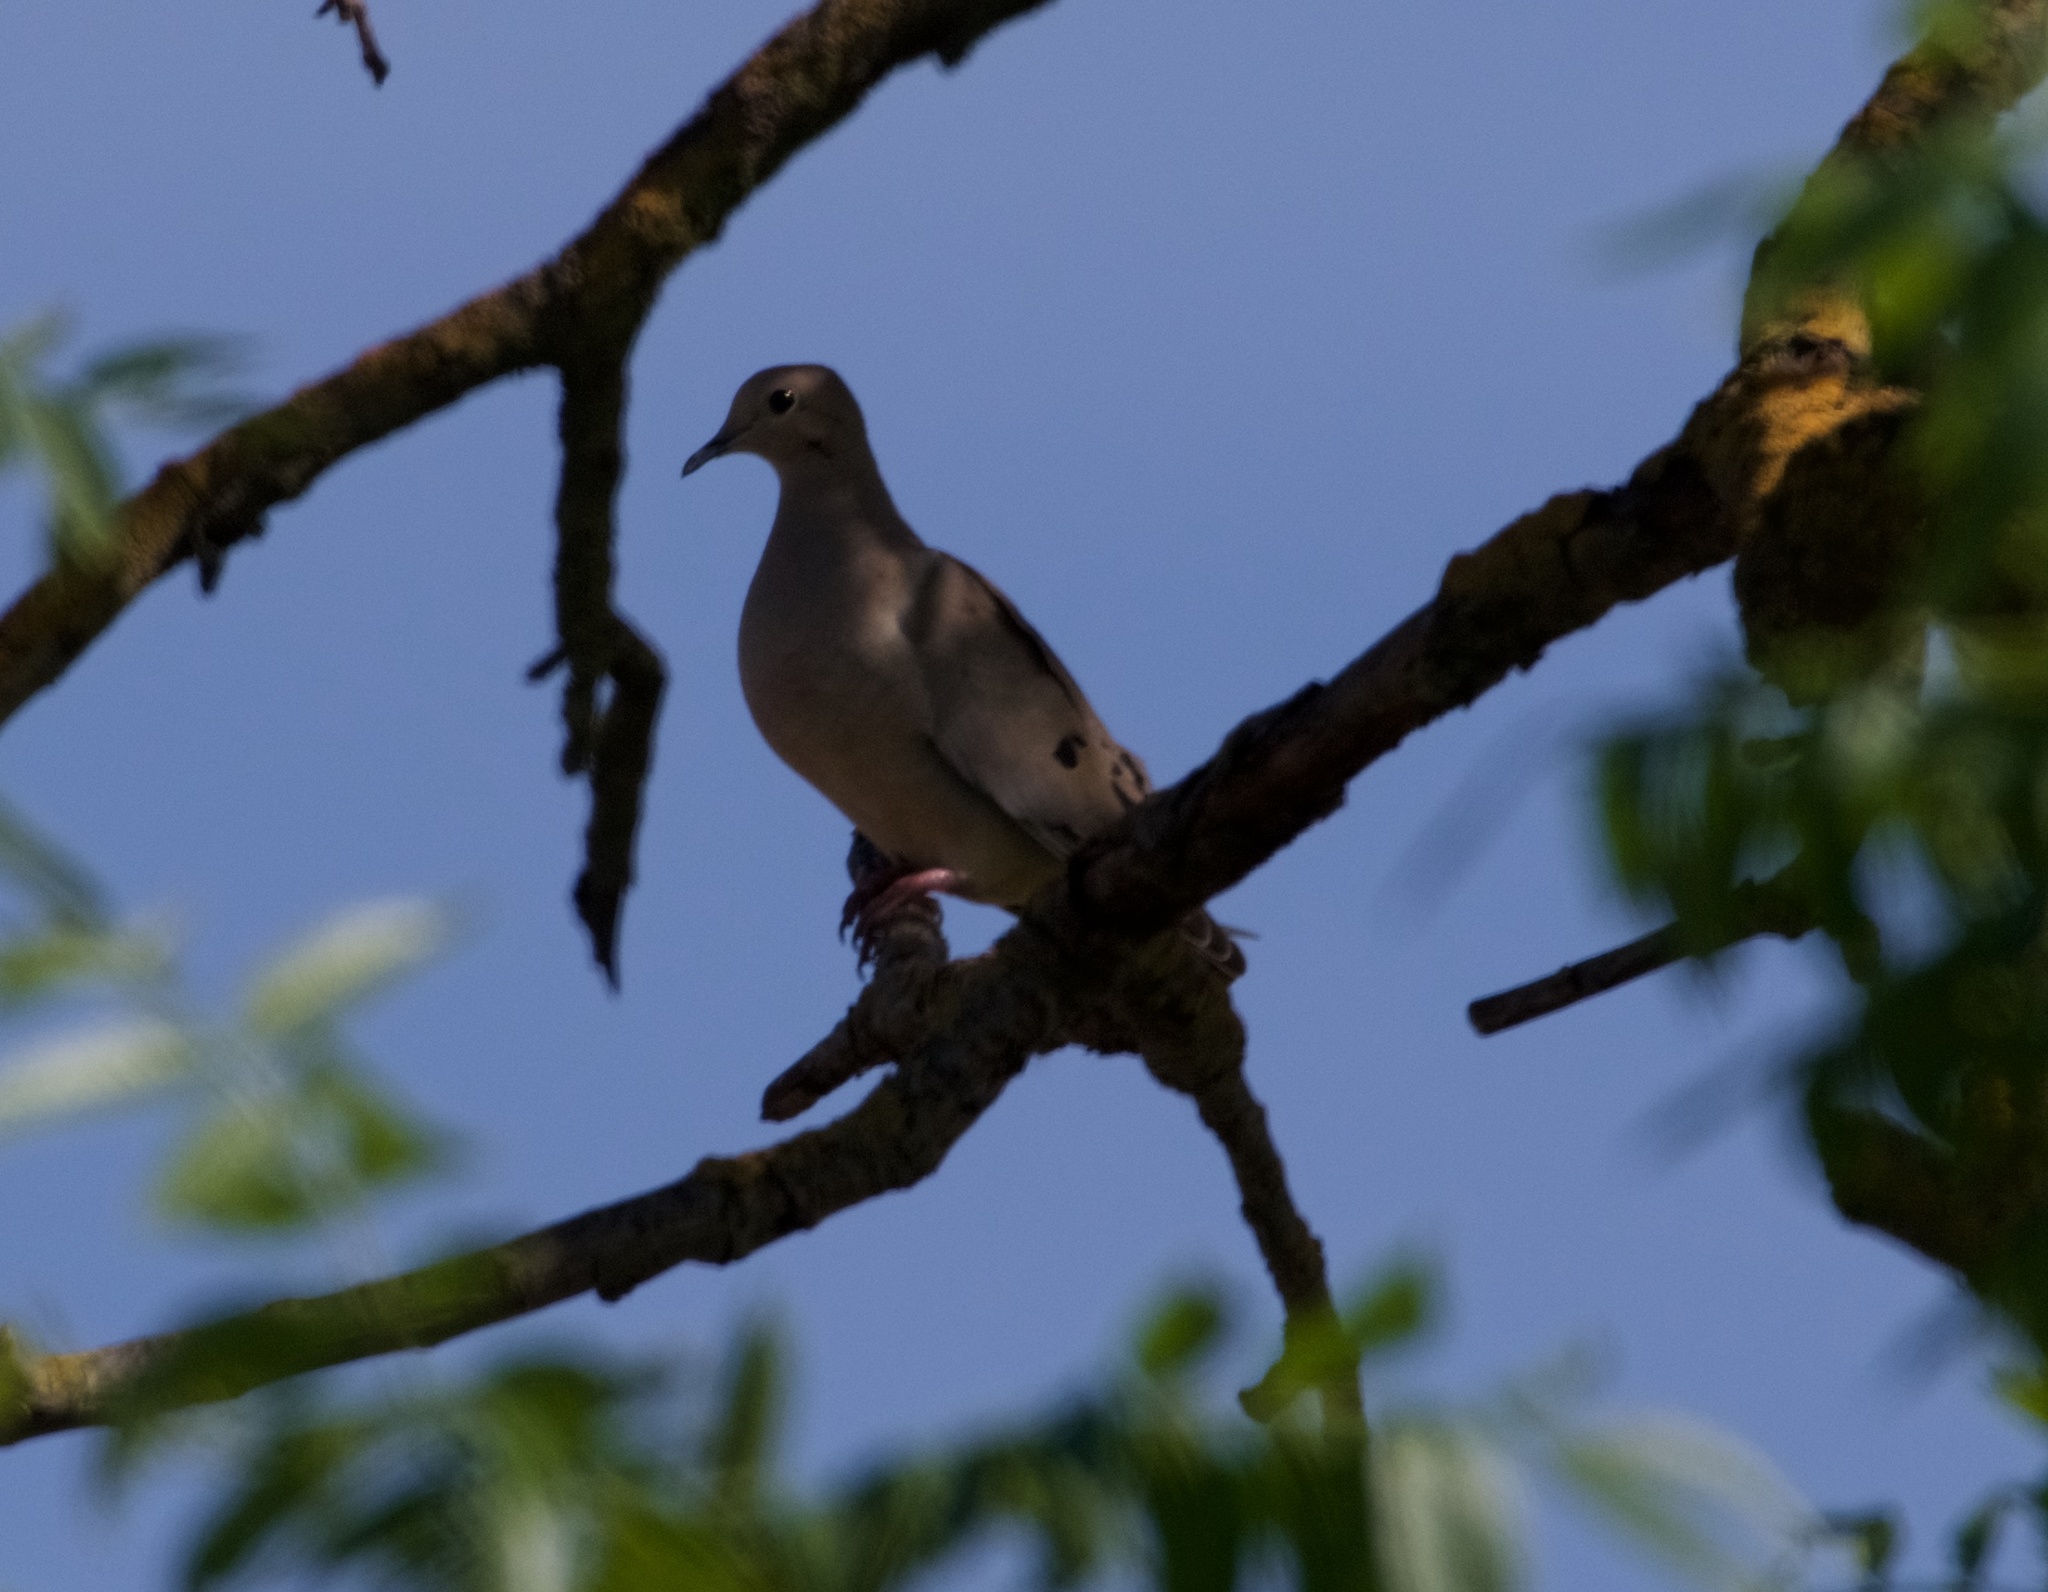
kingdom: Animalia
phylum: Chordata
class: Aves
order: Columbiformes
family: Columbidae
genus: Zenaida
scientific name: Zenaida macroura
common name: Mourning dove
